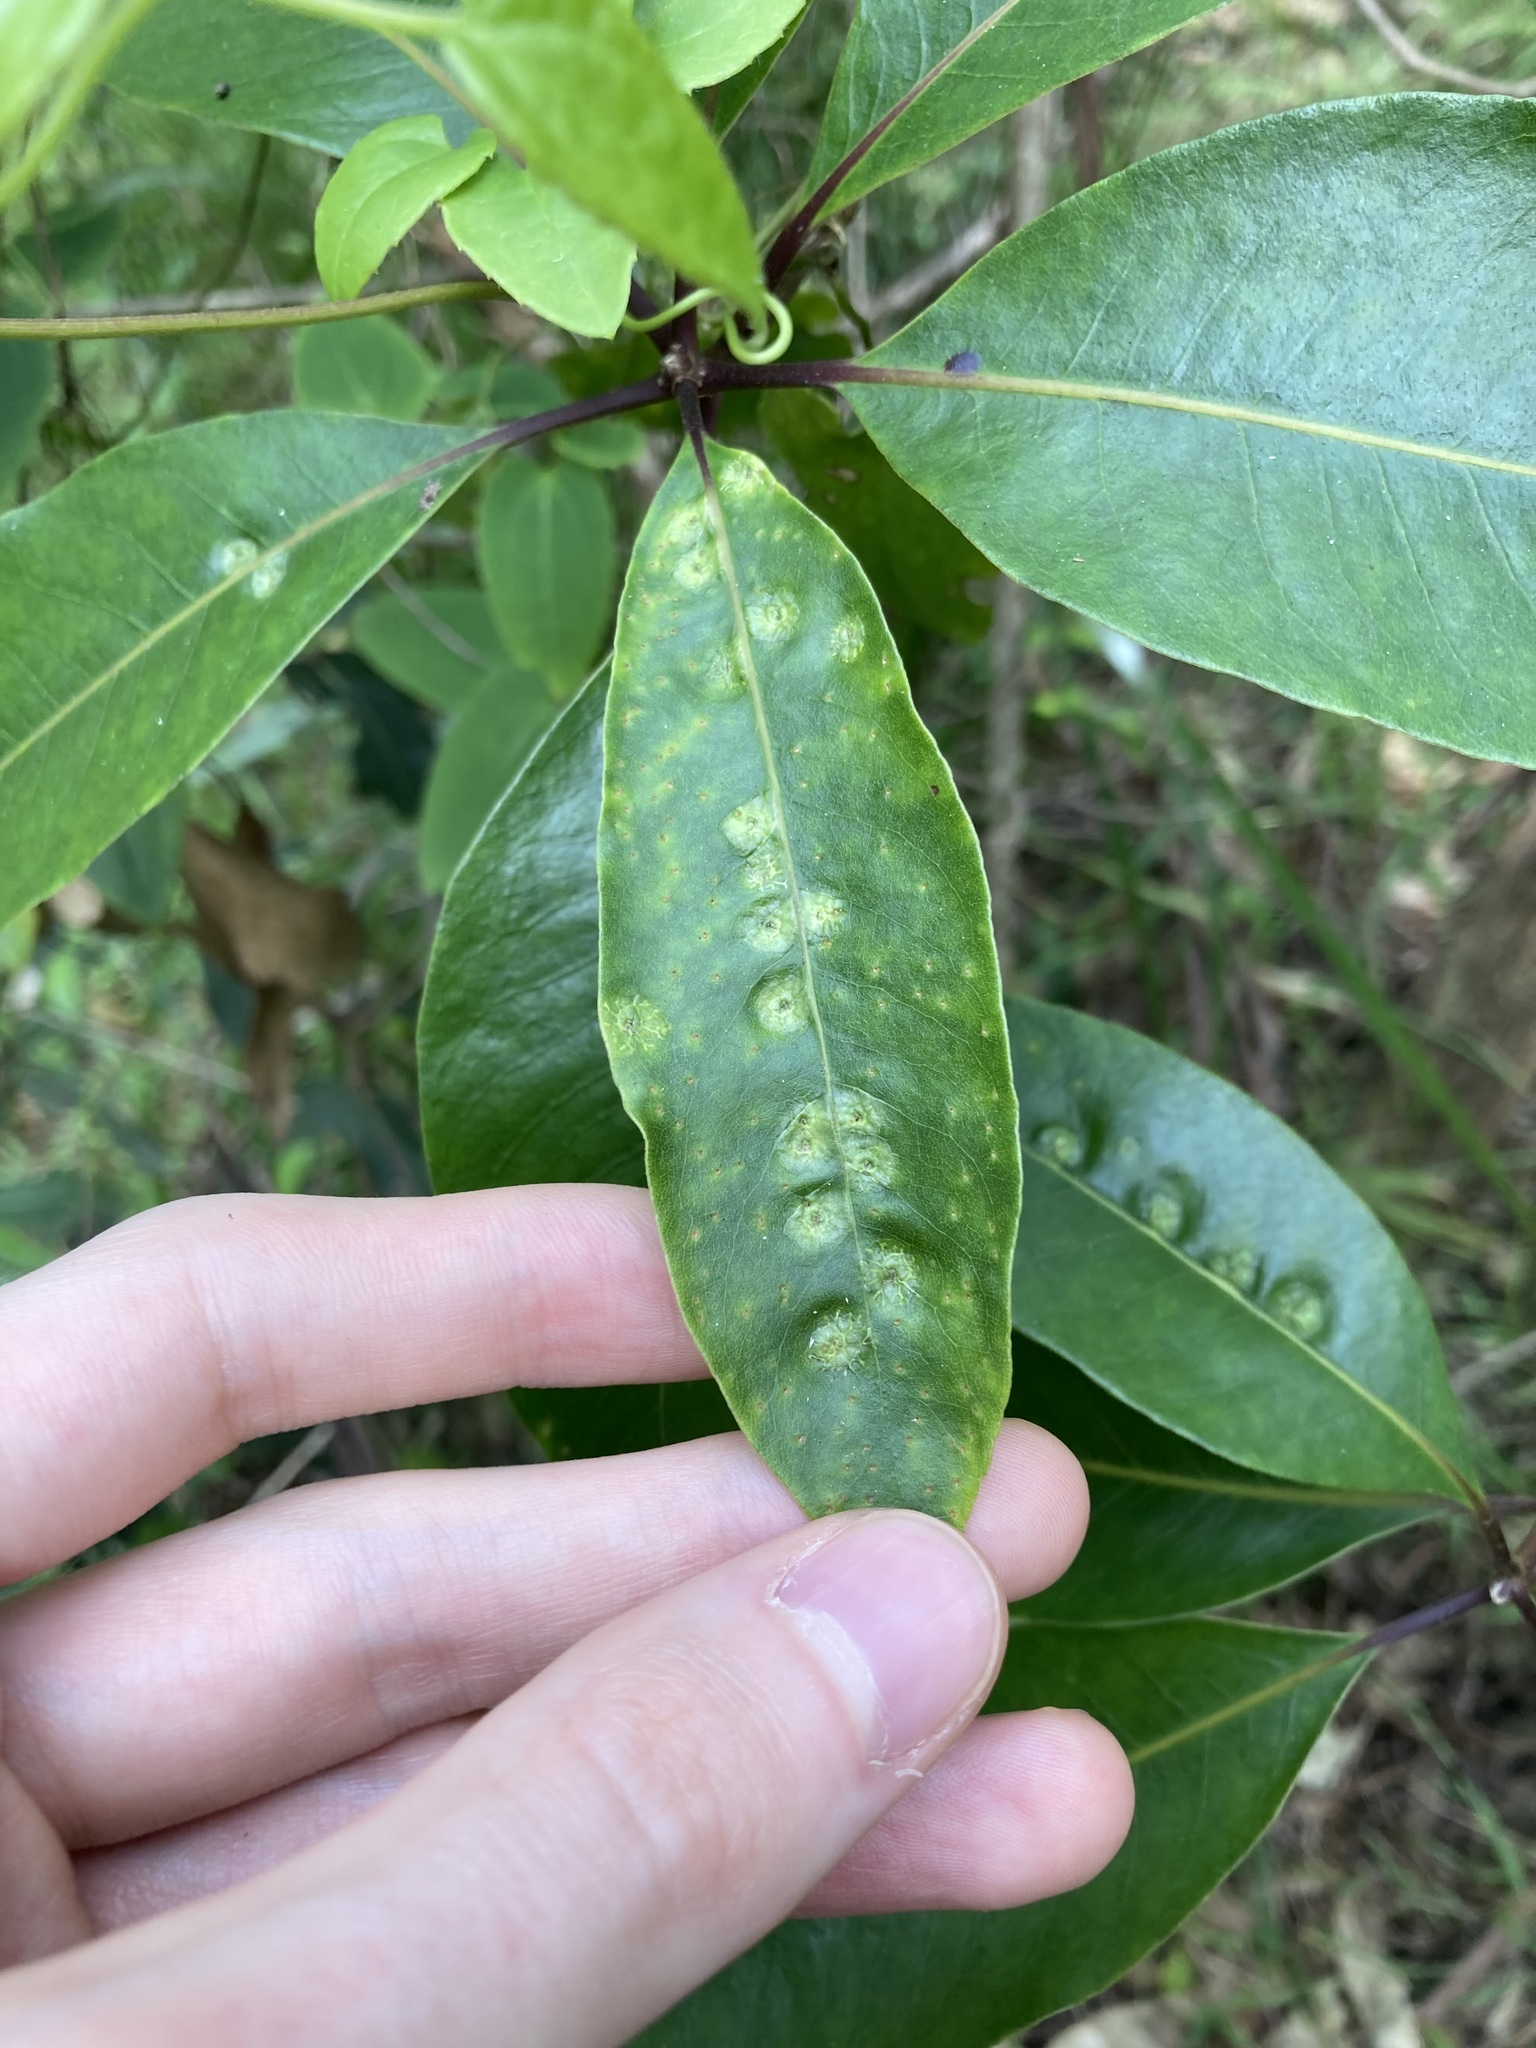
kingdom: Animalia
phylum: Arthropoda
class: Insecta
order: Diptera
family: Agromyzidae
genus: Phytoliriomyza
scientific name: Phytoliriomyza pittosporophylli
